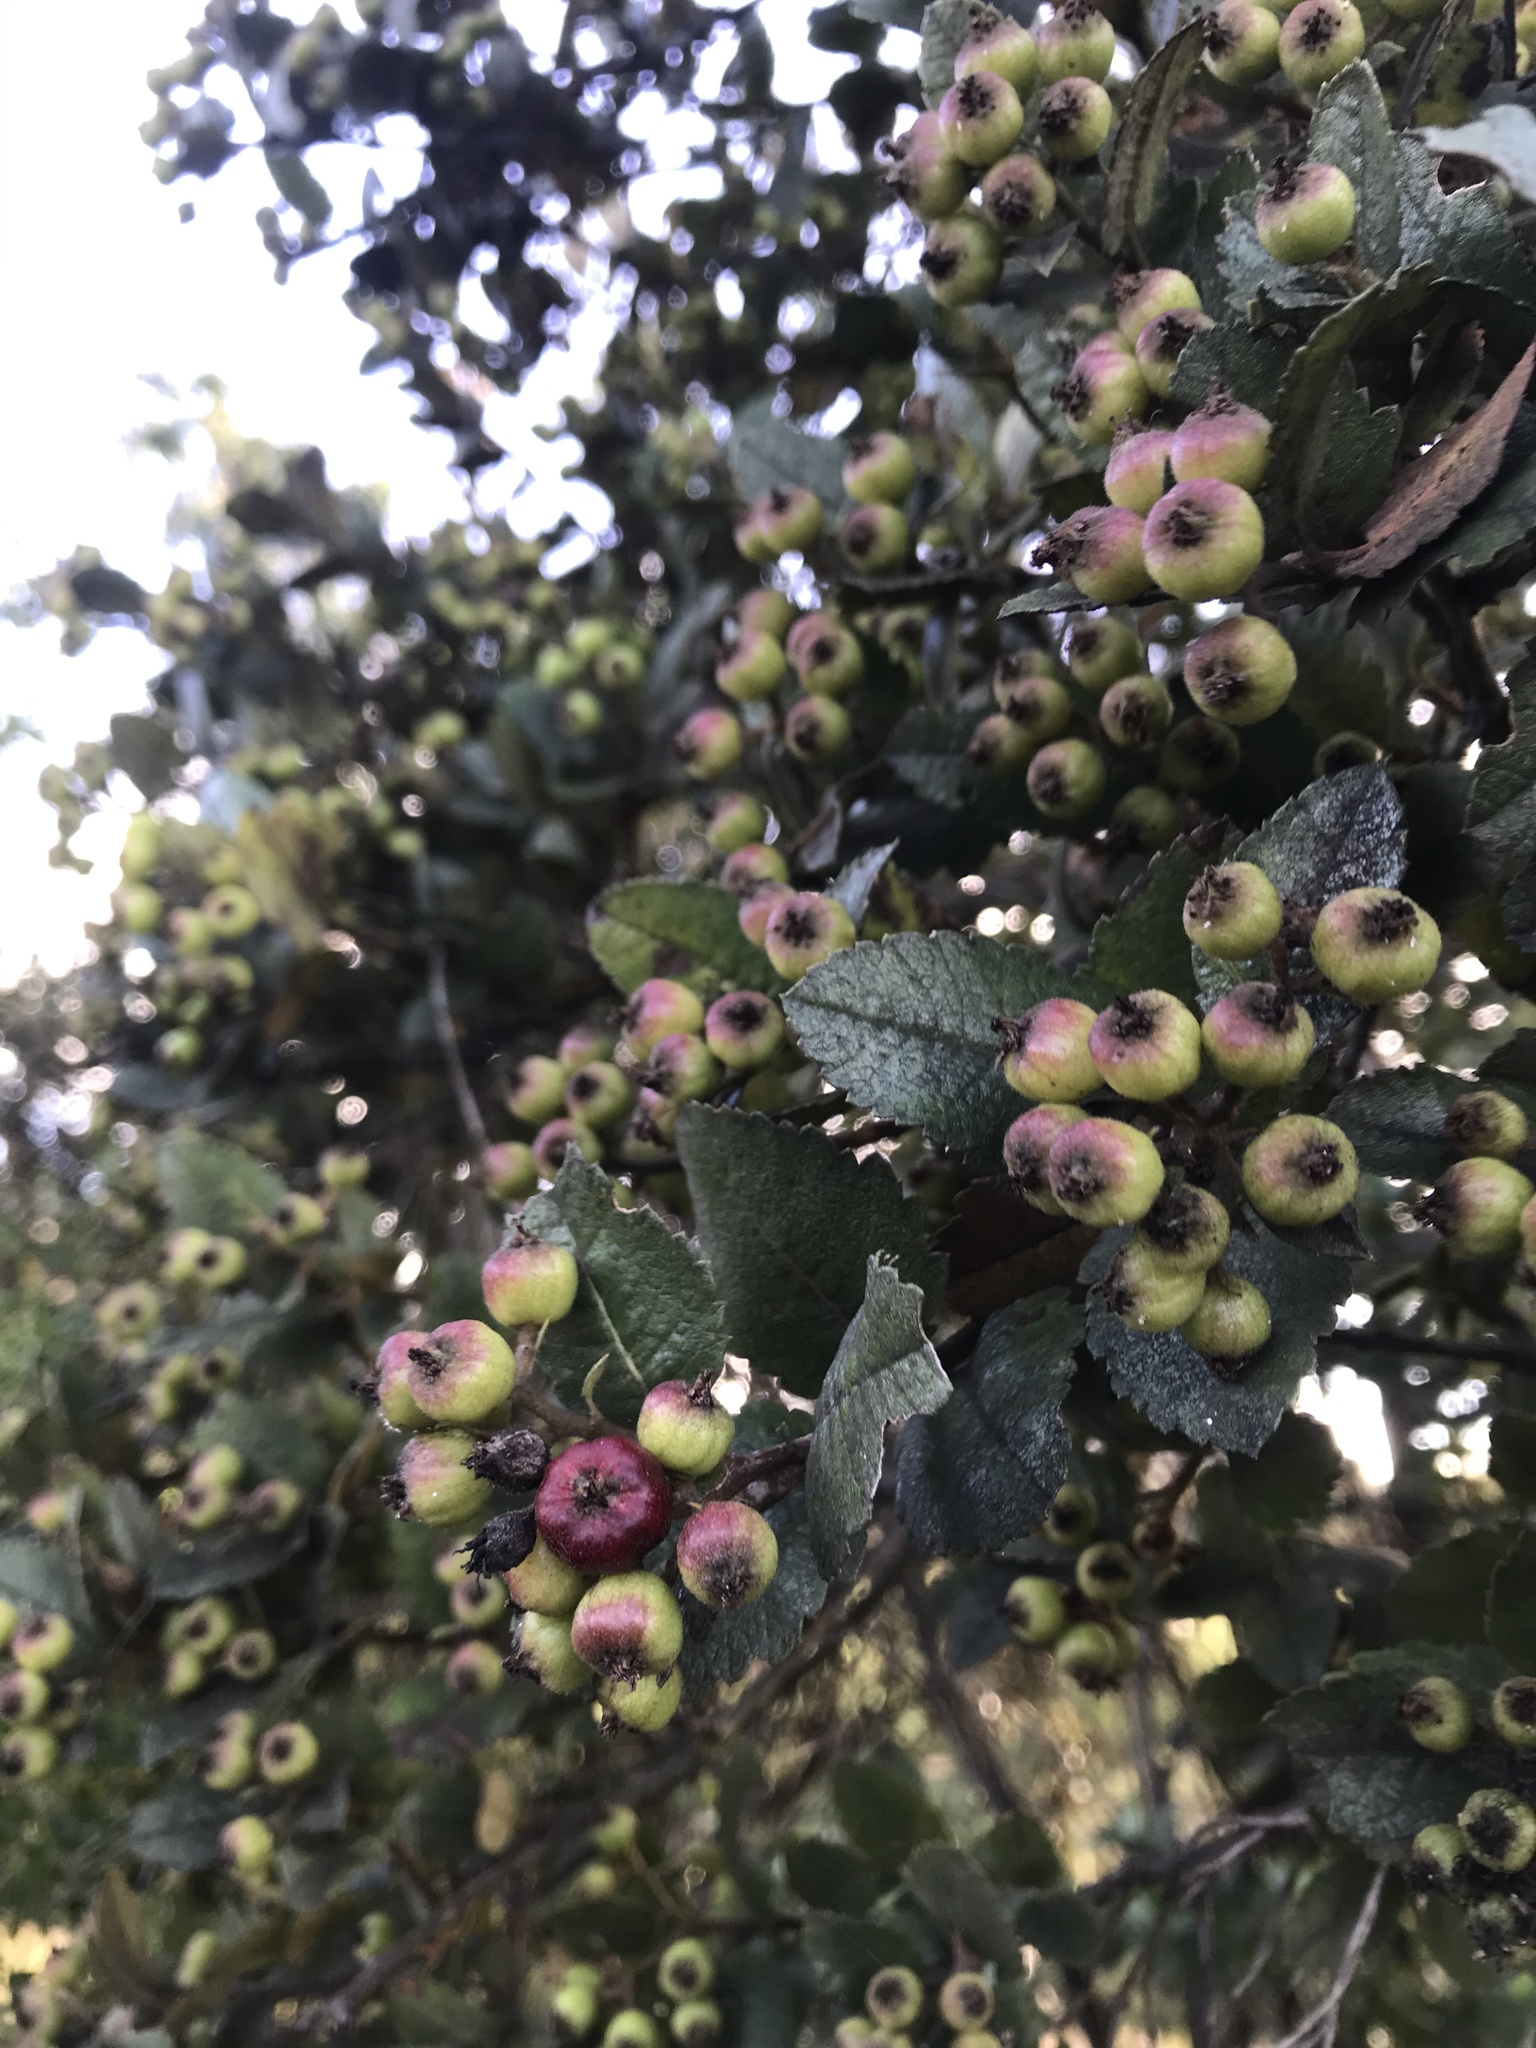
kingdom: Plantae
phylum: Tracheophyta
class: Magnoliopsida
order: Rosales
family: Rosaceae
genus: Hesperomeles
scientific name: Hesperomeles goudotiana
